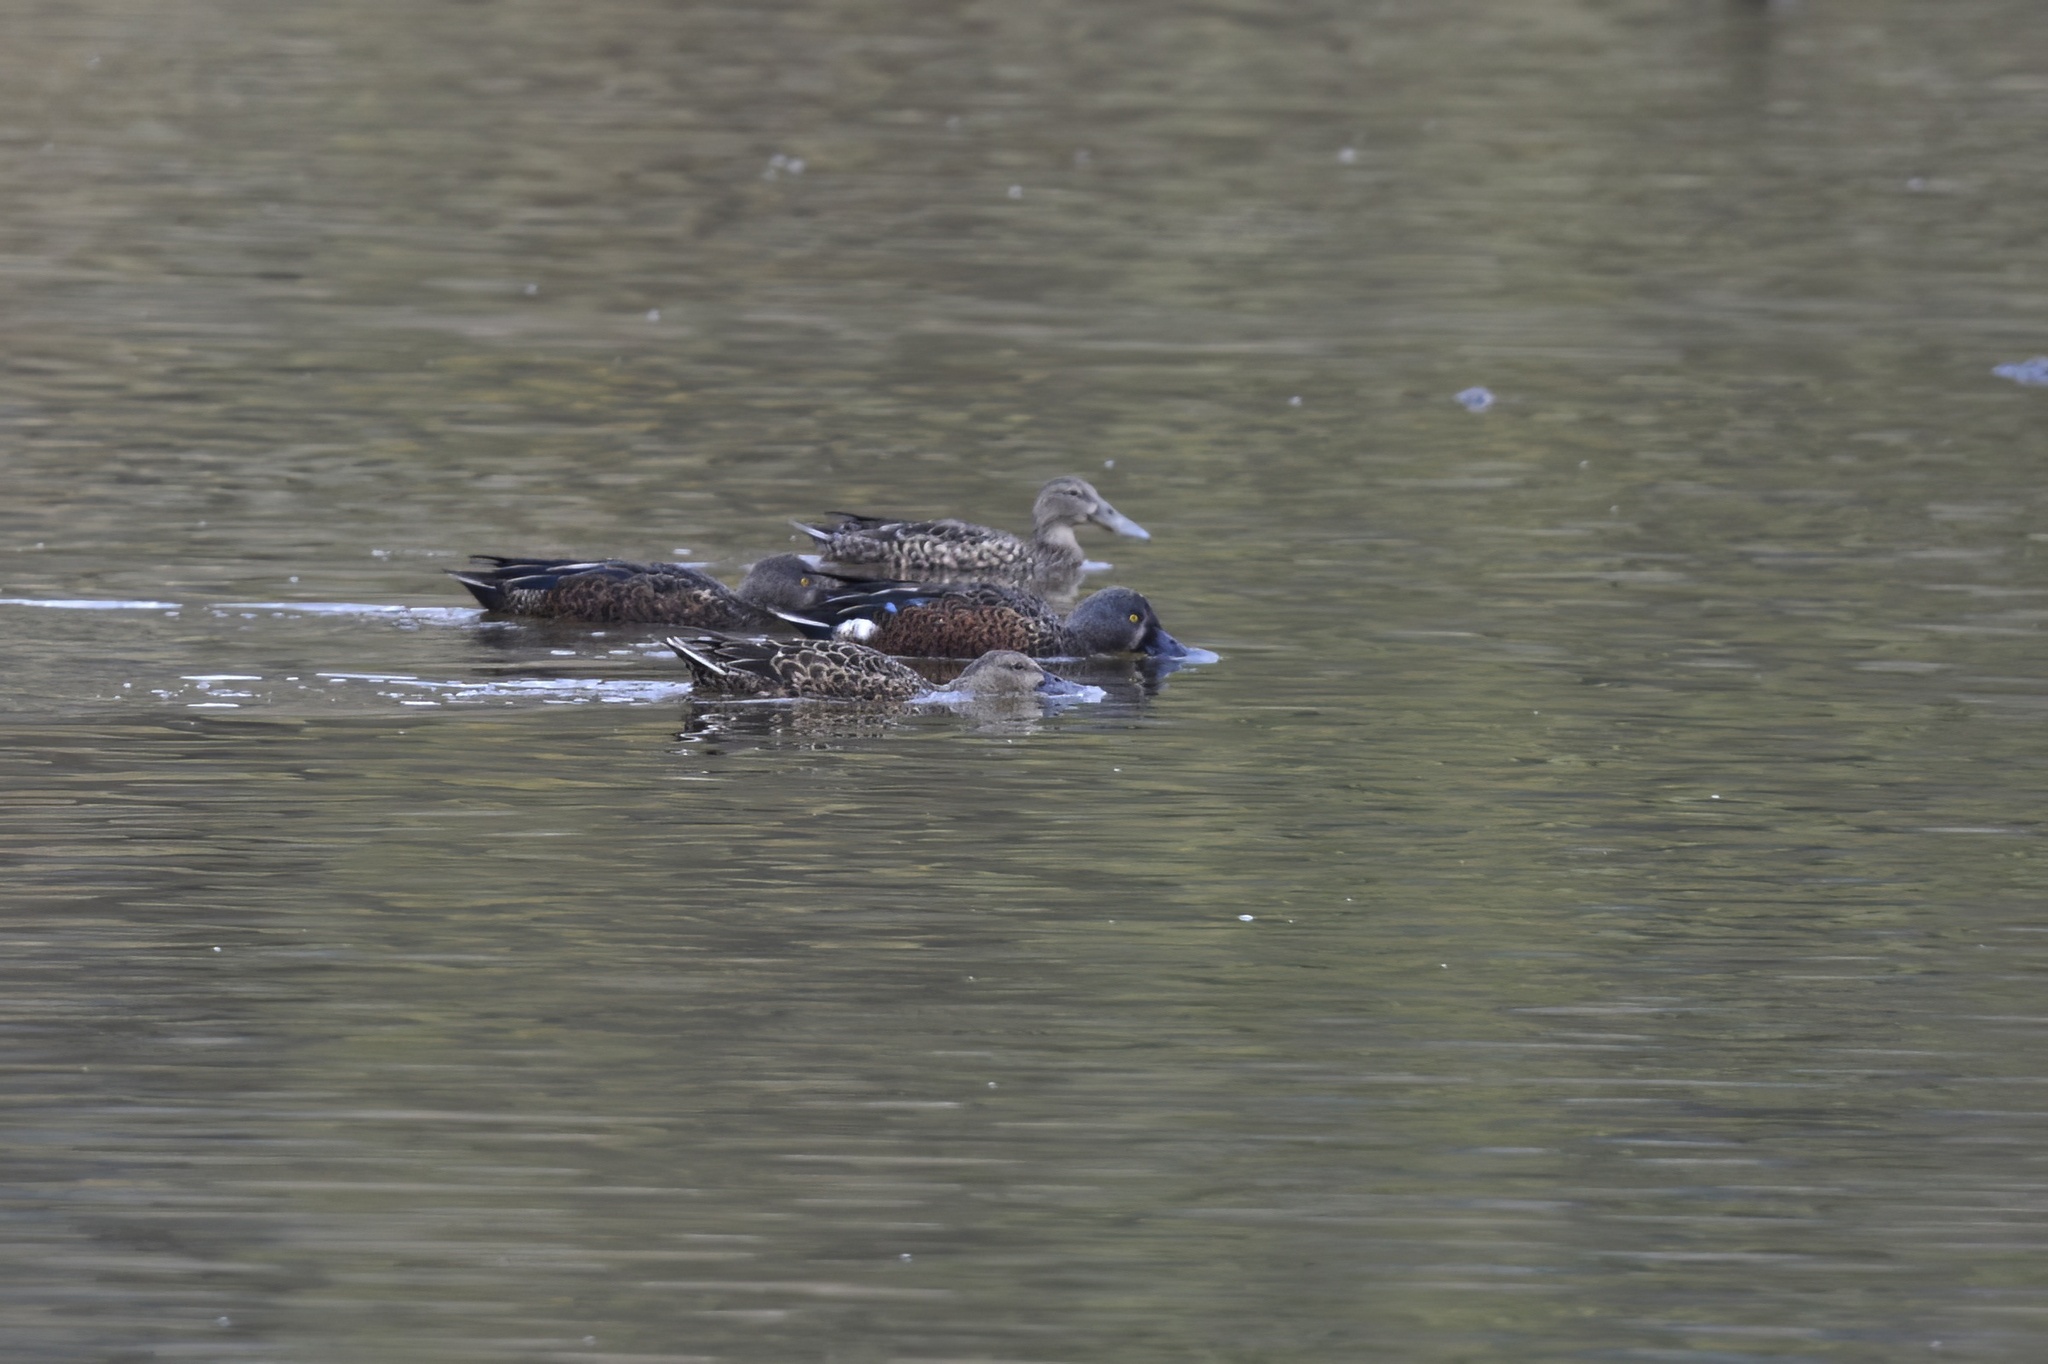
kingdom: Animalia
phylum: Chordata
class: Aves
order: Anseriformes
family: Anatidae
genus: Spatula
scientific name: Spatula rhynchotis
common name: Australian shoveler
